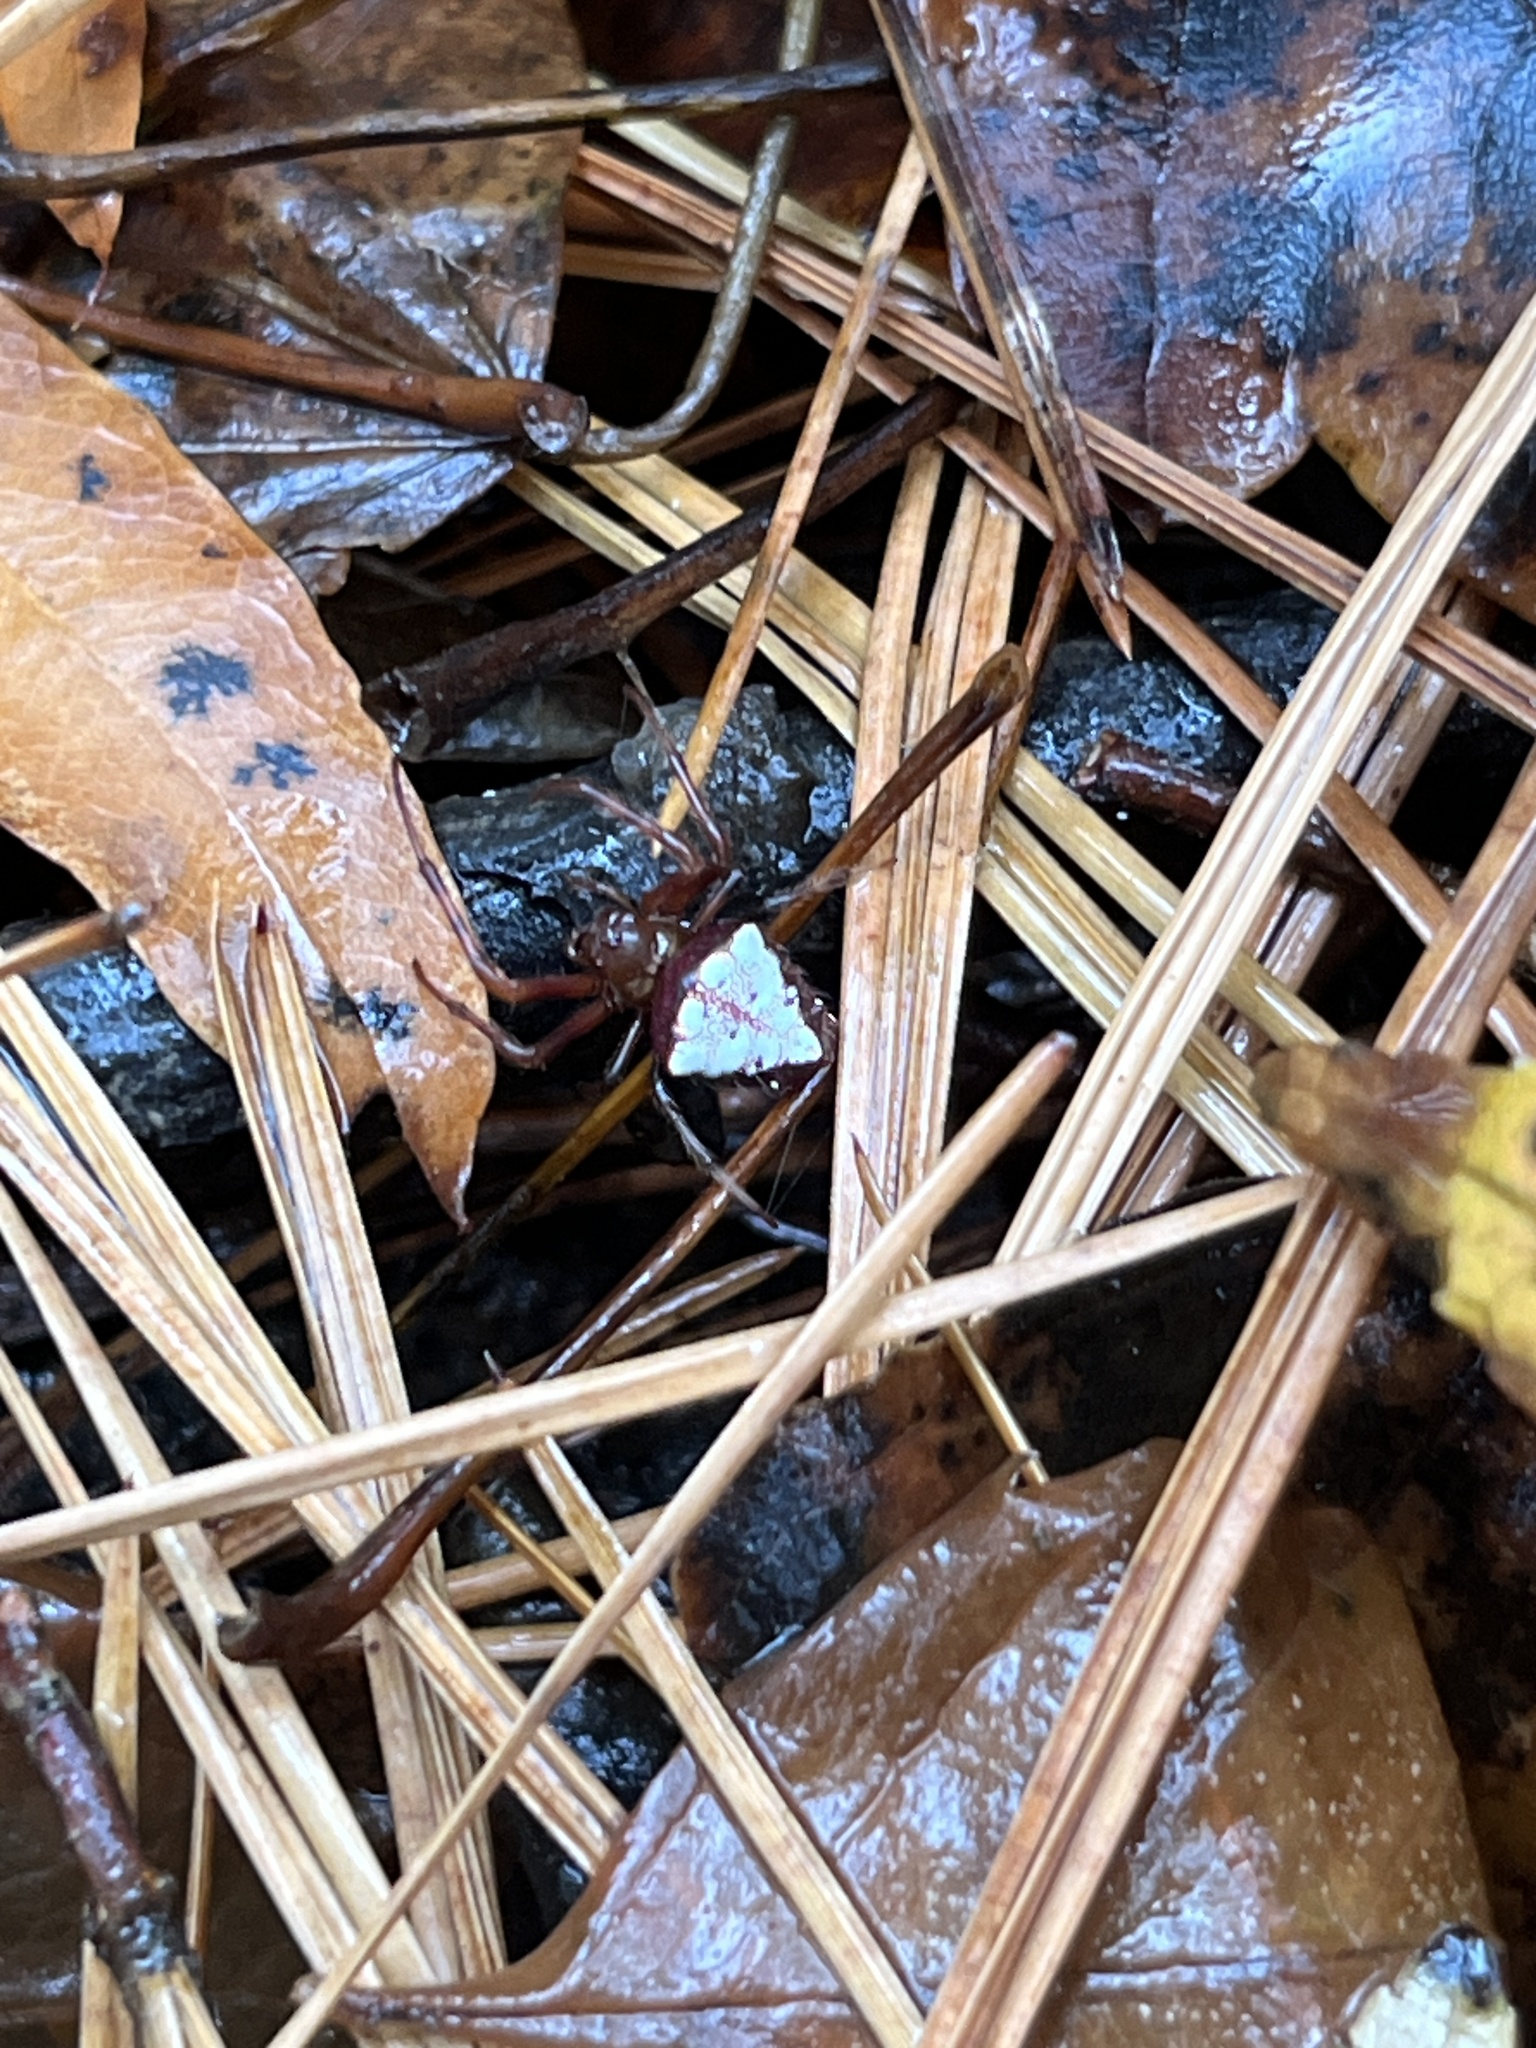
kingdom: Animalia
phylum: Arthropoda
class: Arachnida
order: Araneae
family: Araneidae
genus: Verrucosa
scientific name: Verrucosa arenata
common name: Orb weavers
